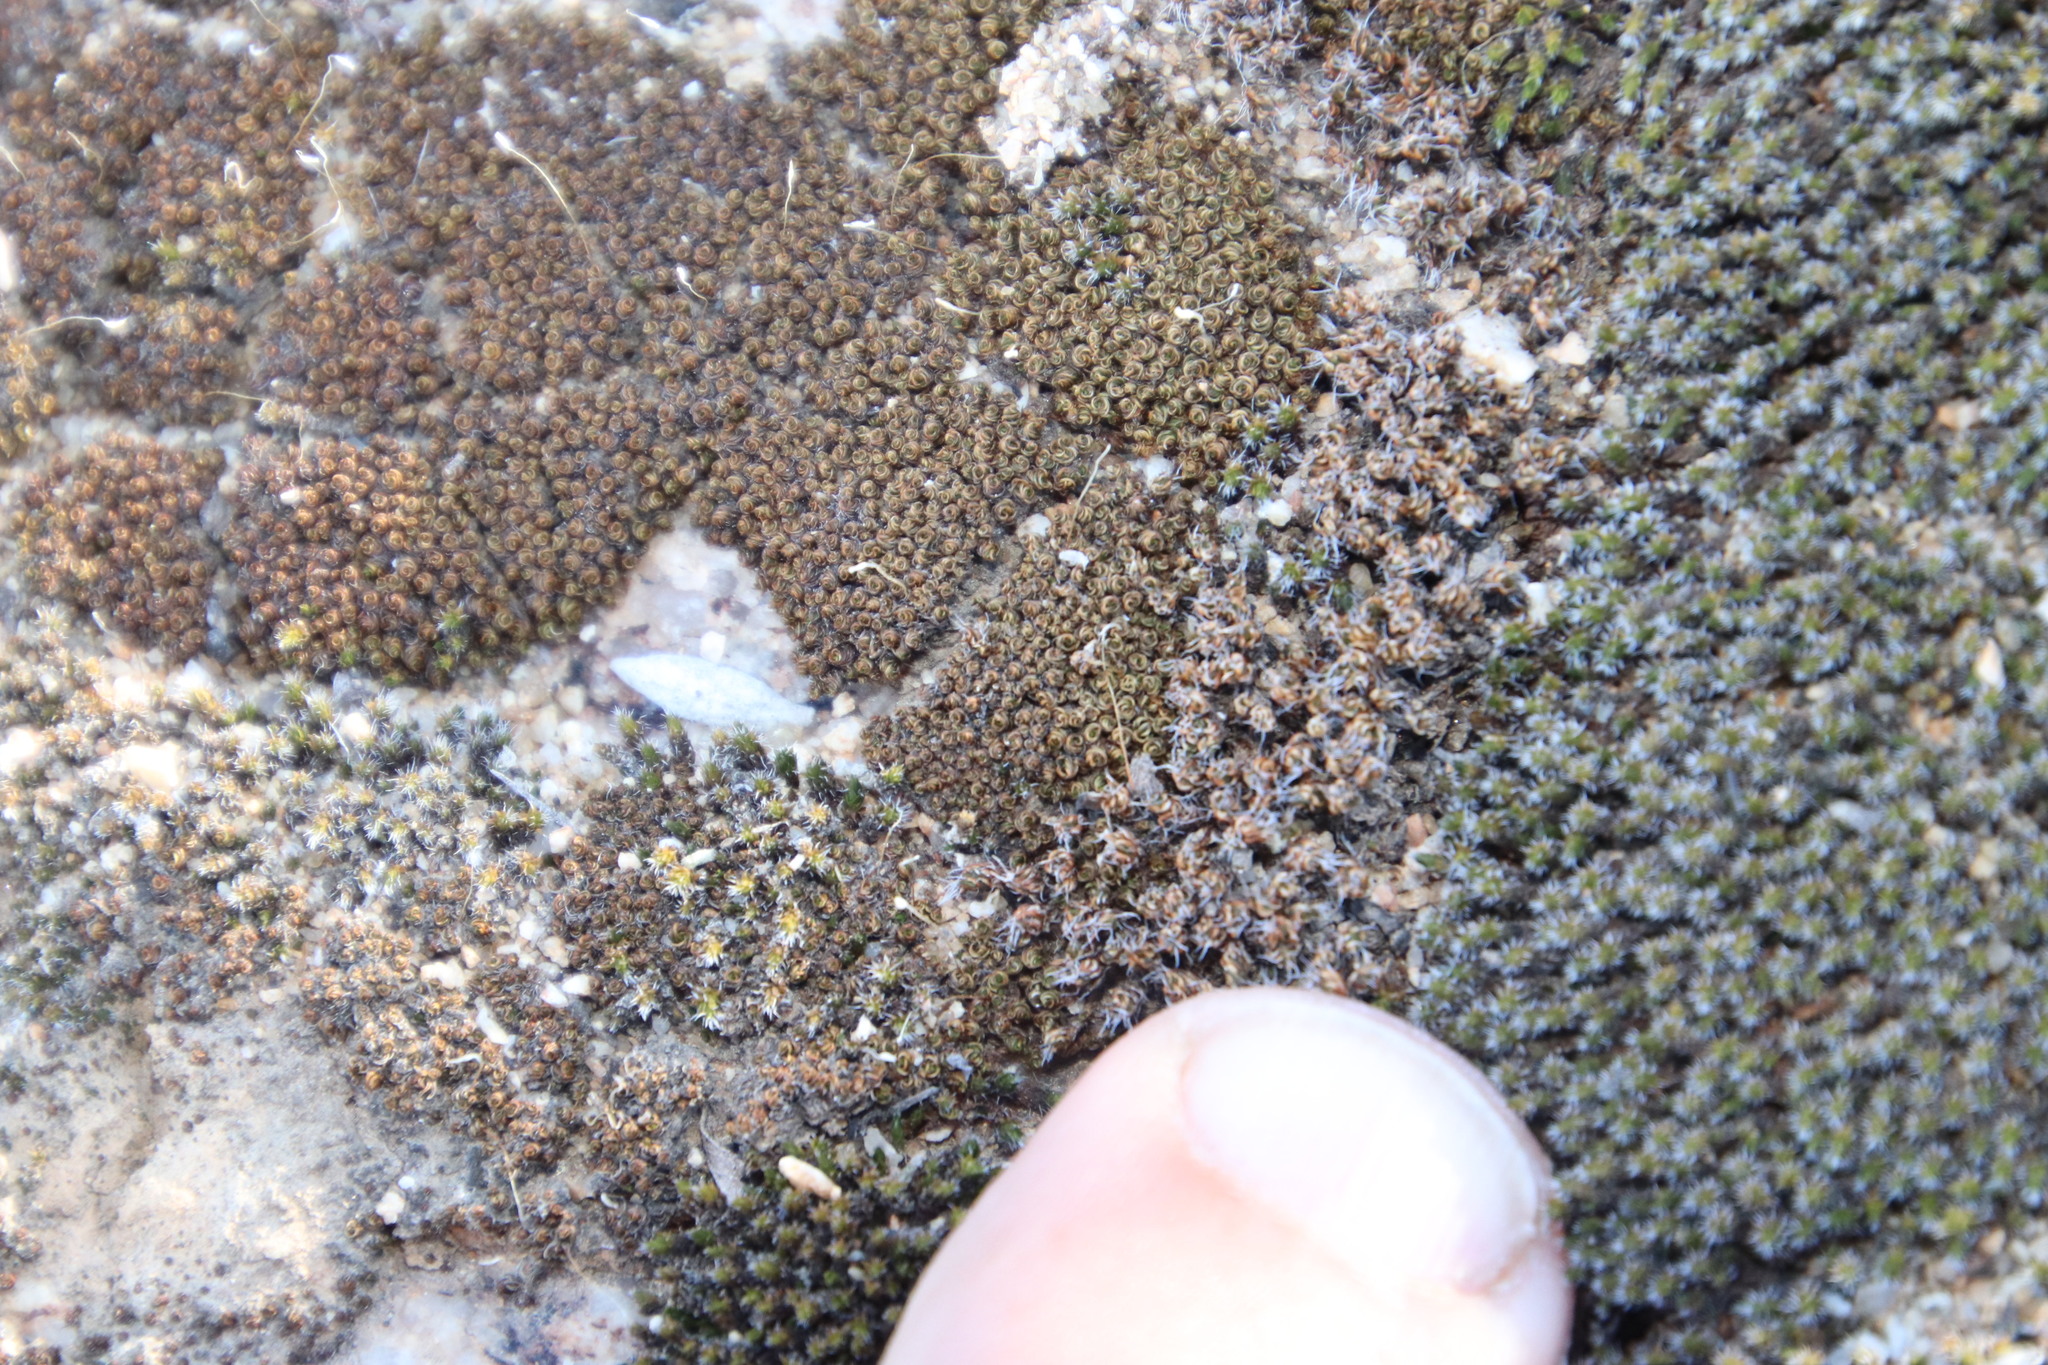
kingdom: Plantae
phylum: Bryophyta
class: Bryopsida
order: Grimmiales
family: Grimmiaceae
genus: Grimmia
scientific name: Grimmia laevigata
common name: Hoary grimmia
